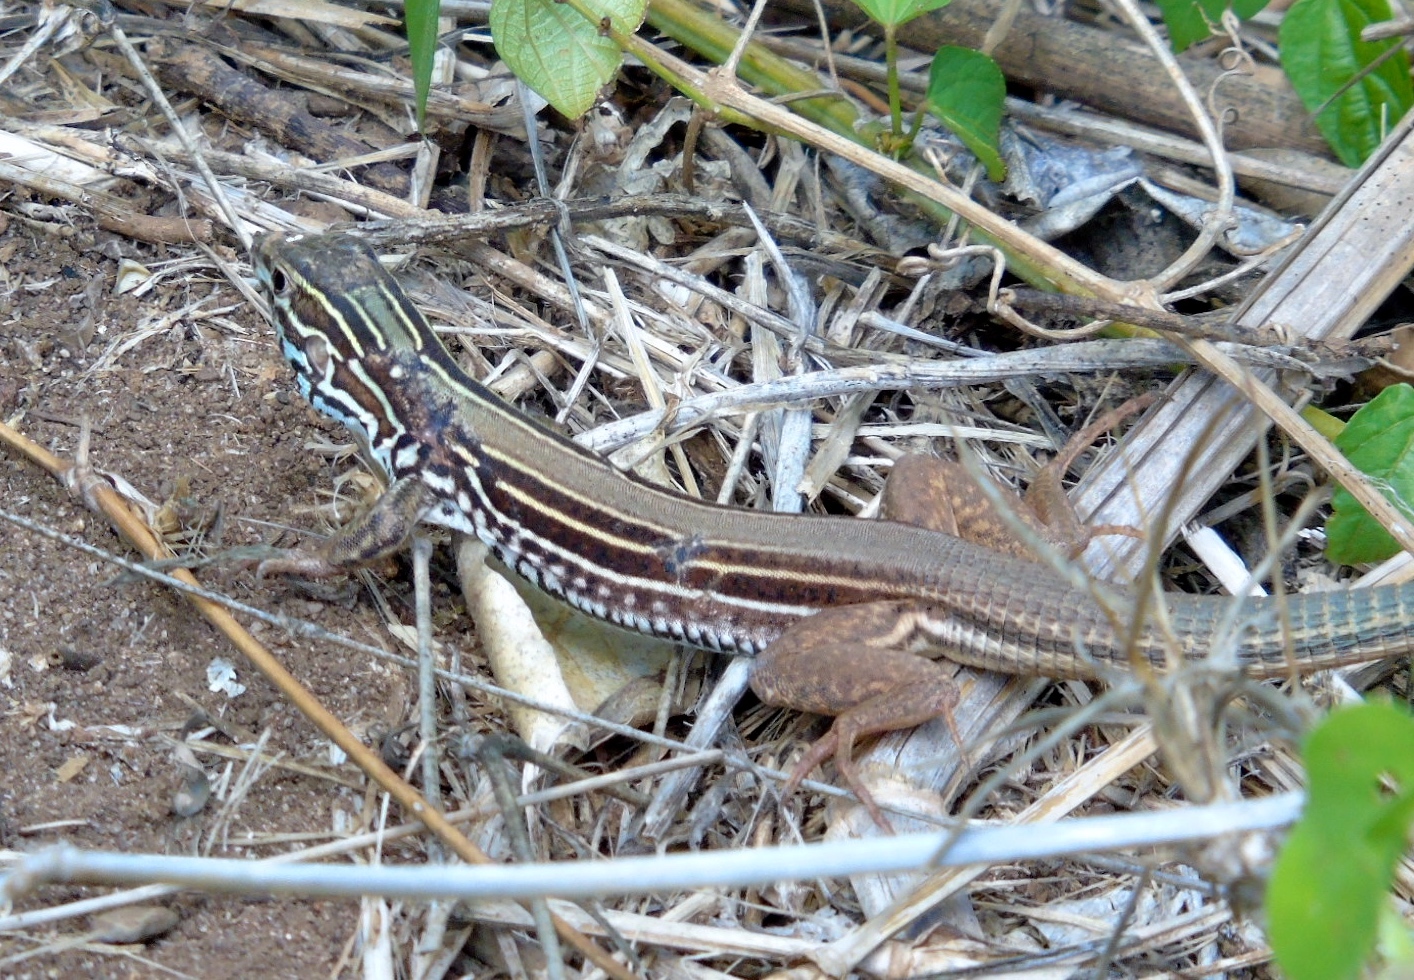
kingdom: Animalia
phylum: Chordata
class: Squamata
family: Teiidae
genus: Aspidoscelis
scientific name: Aspidoscelis costatus
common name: Western mexico whiptail
